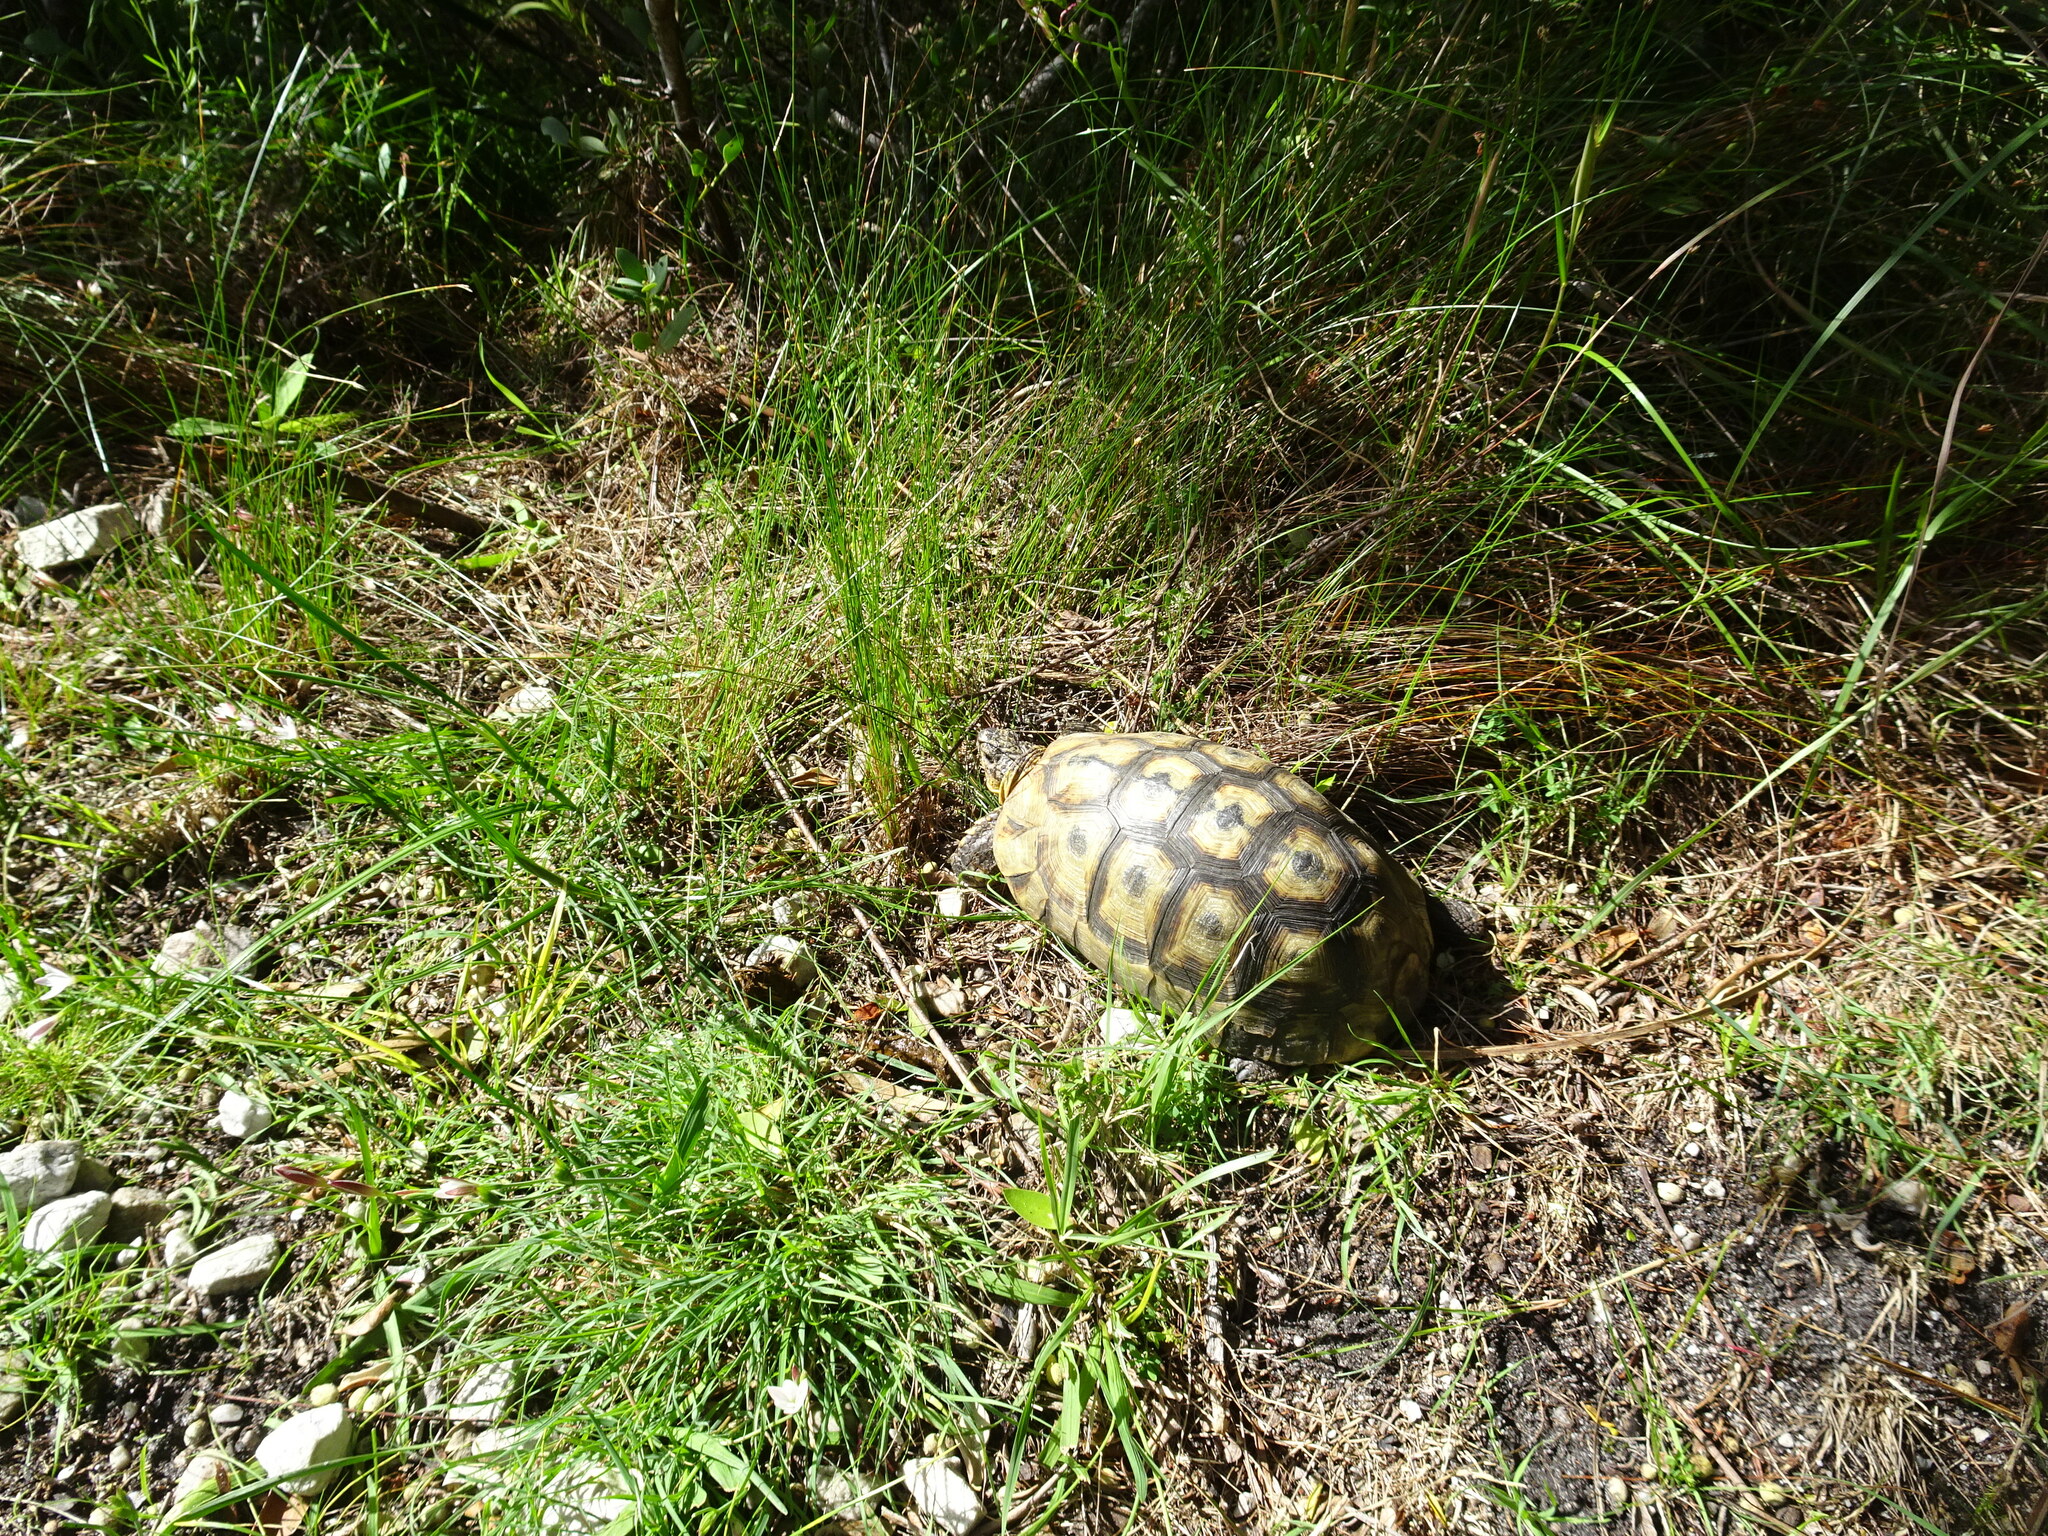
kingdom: Animalia
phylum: Chordata
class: Testudines
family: Testudinidae
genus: Chersina
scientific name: Chersina angulata
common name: South african bowsprit tortoise
